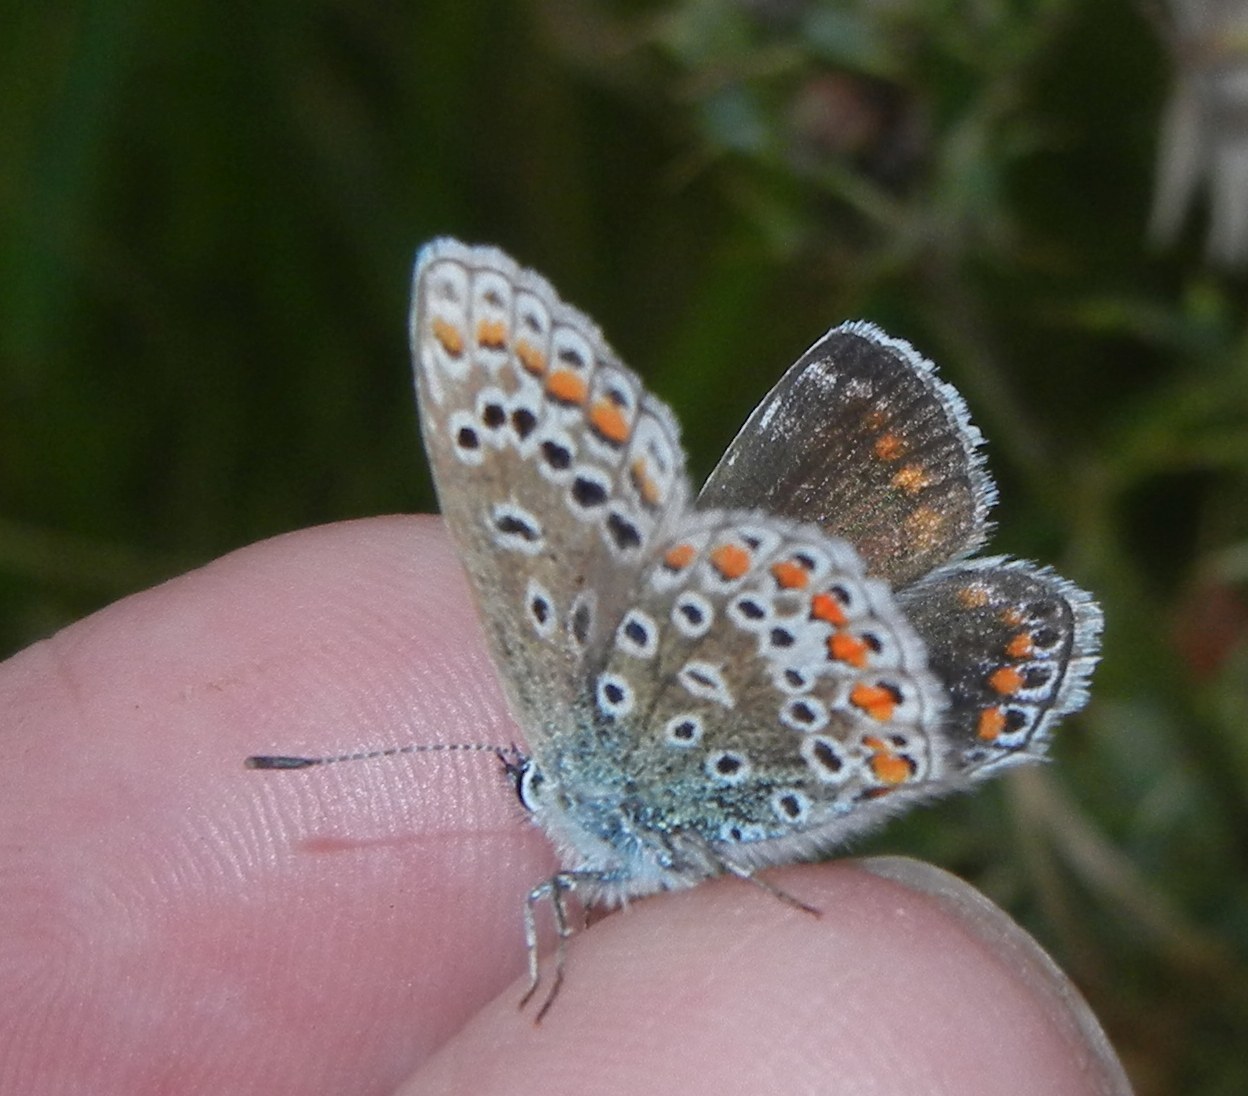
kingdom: Animalia
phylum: Arthropoda
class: Insecta
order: Lepidoptera
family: Lycaenidae
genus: Polyommatus
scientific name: Polyommatus icarus
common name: Common blue
